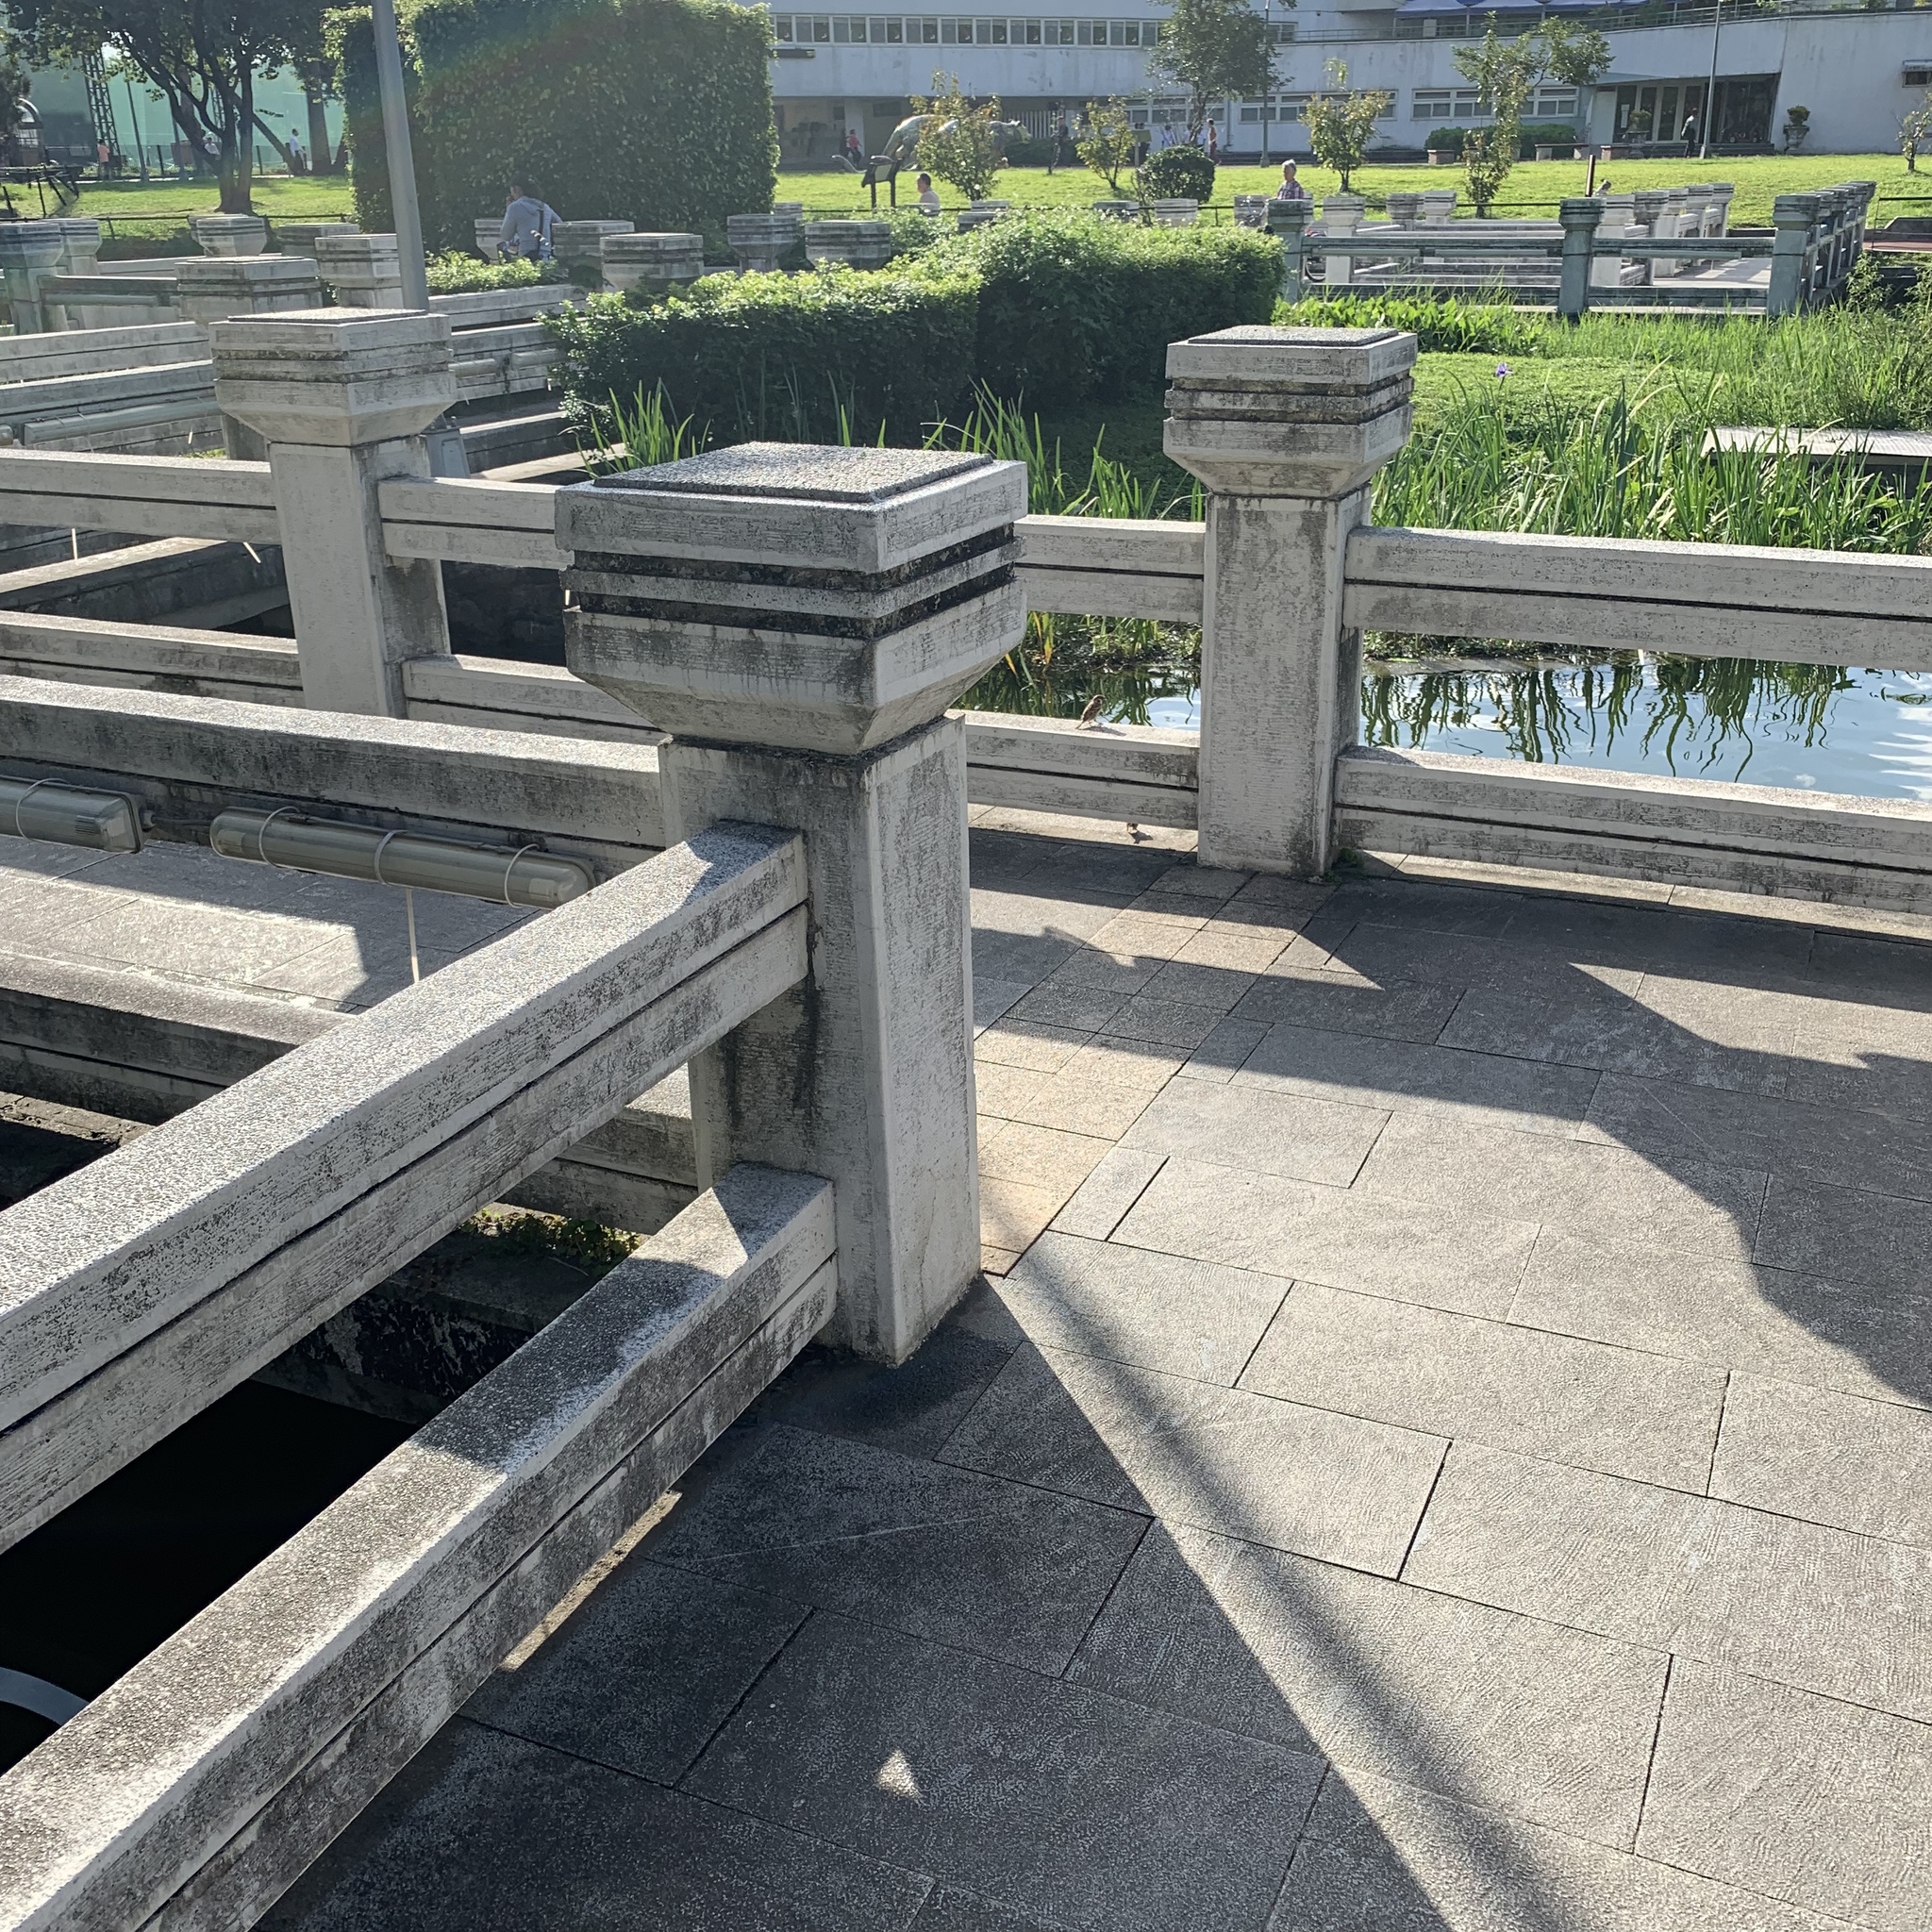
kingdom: Animalia
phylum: Chordata
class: Aves
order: Passeriformes
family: Passeridae
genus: Passer
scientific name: Passer montanus
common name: Eurasian tree sparrow
